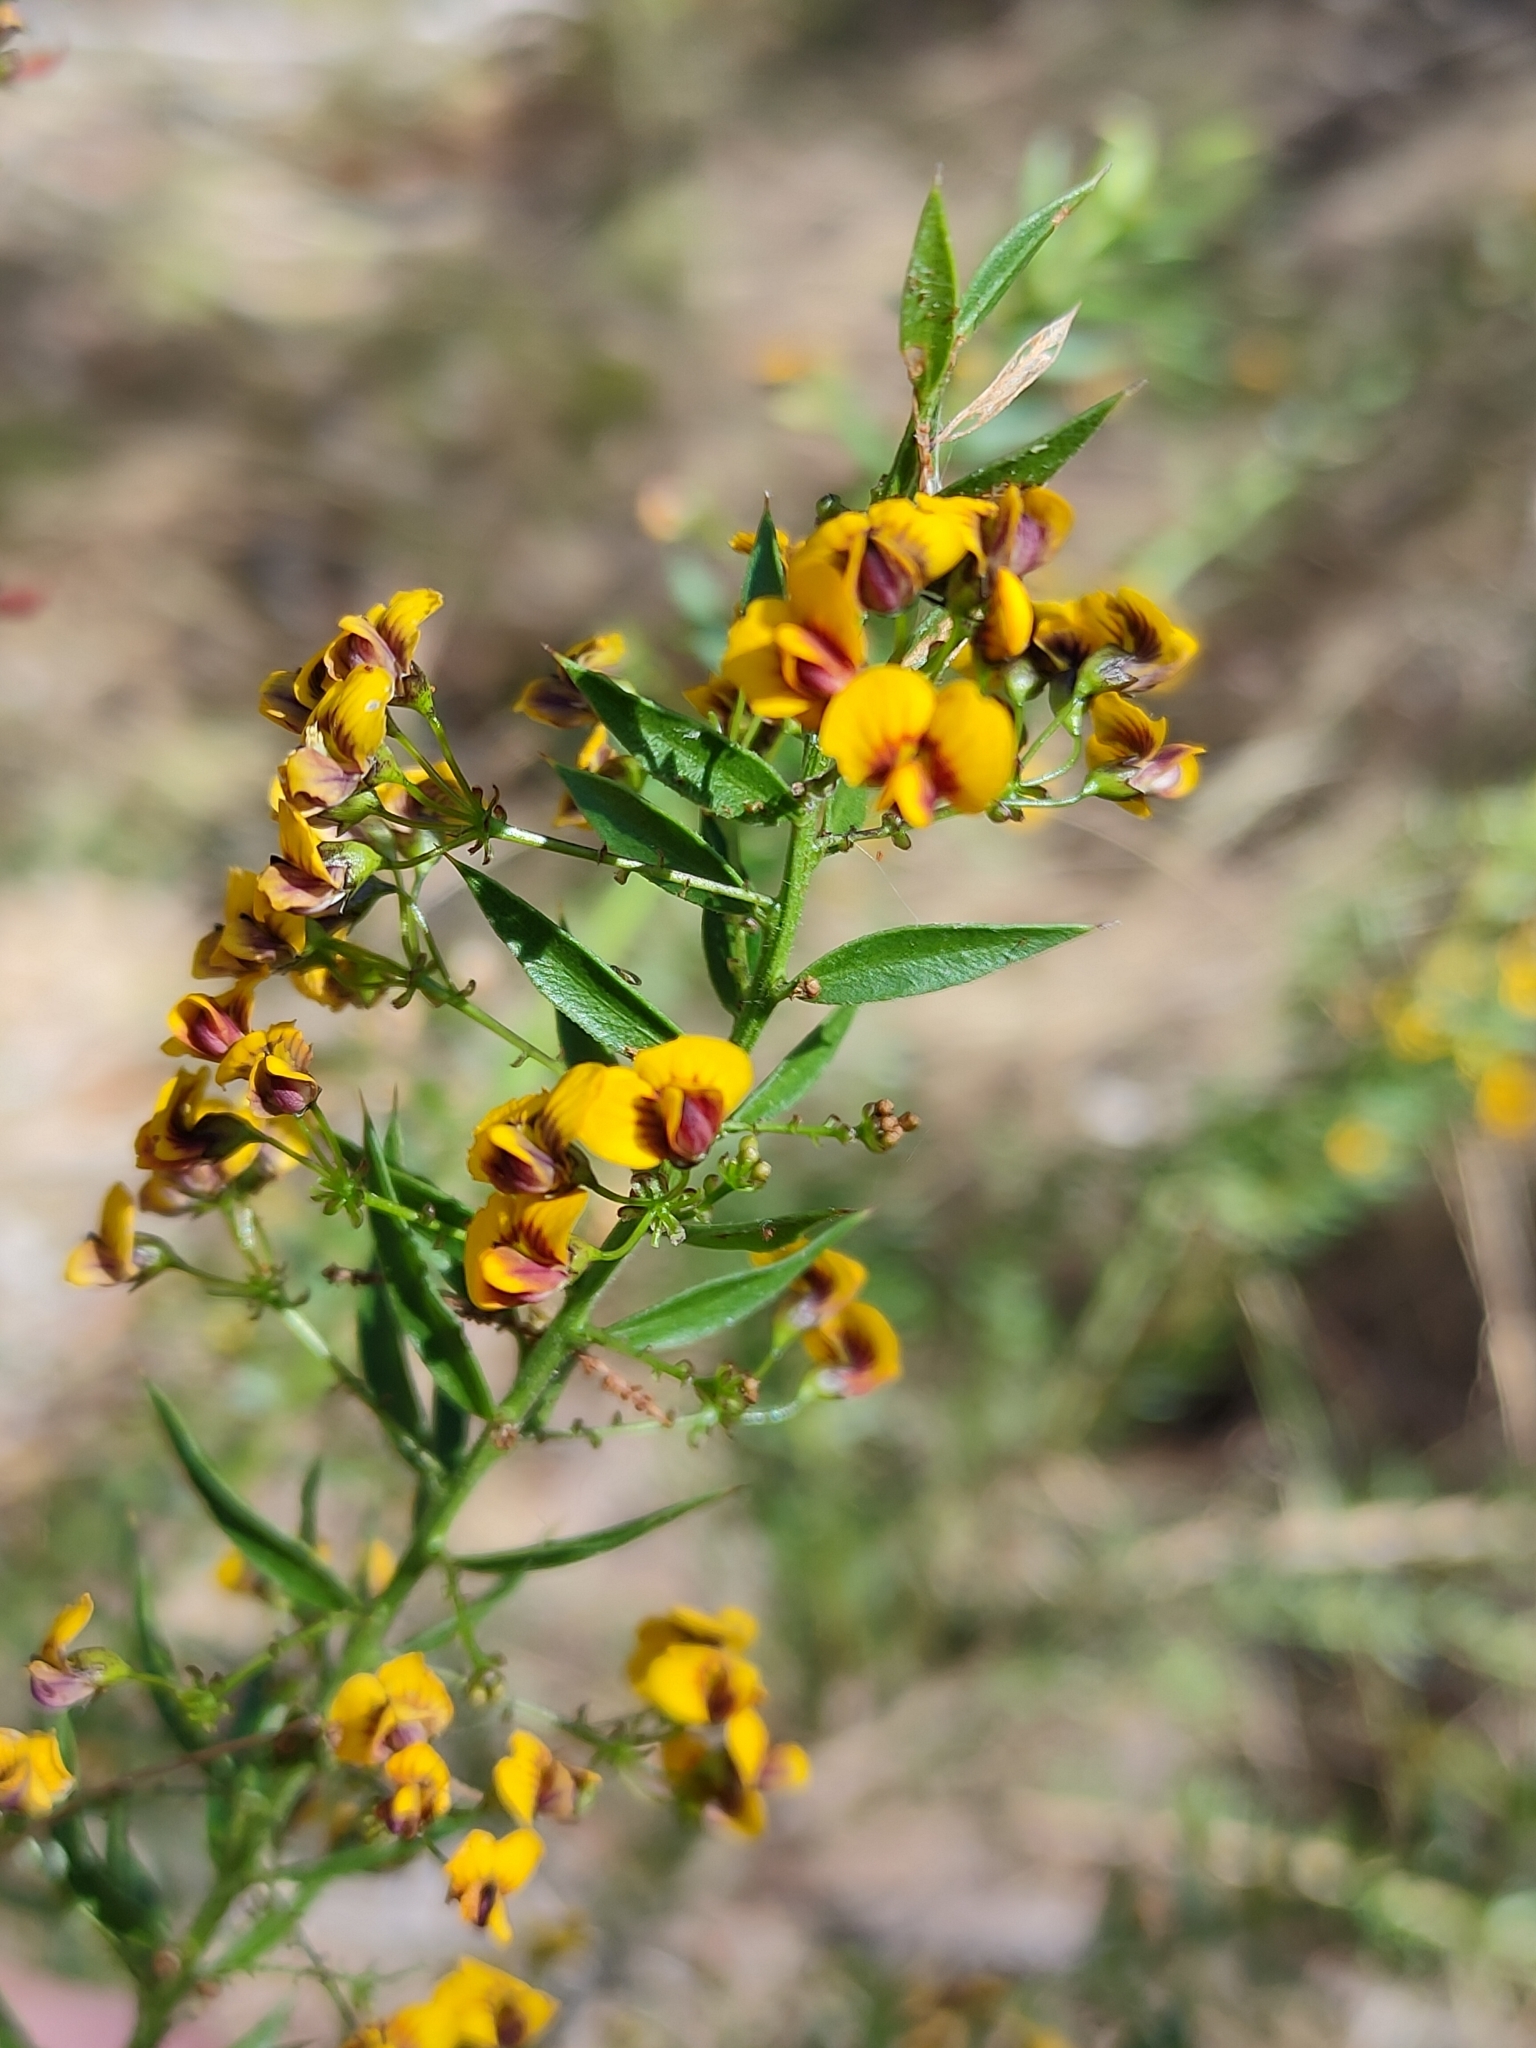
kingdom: Plantae
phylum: Tracheophyta
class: Magnoliopsida
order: Fabales
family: Fabaceae
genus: Daviesia
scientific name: Daviesia umbellulata
